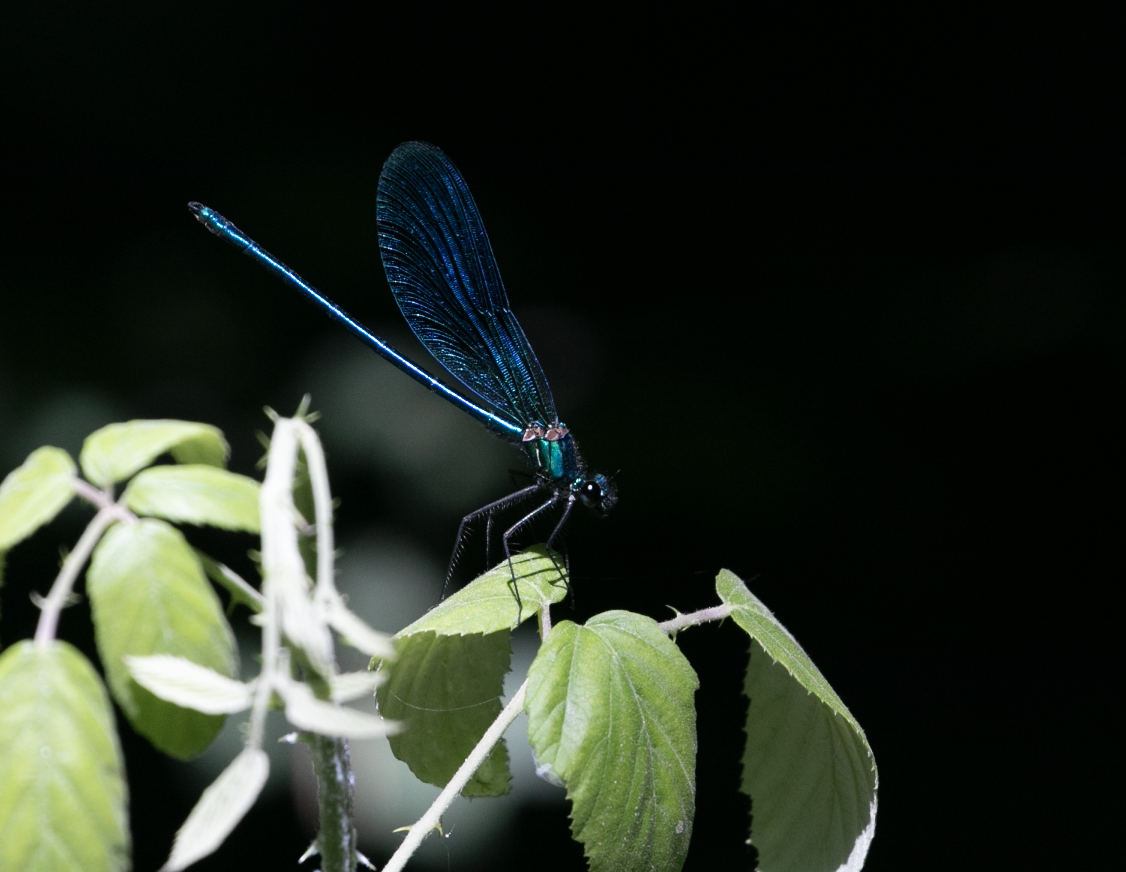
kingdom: Animalia
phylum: Arthropoda
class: Insecta
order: Odonata
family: Calopterygidae
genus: Calopteryx
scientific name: Calopteryx splendens
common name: Banded demoiselle
